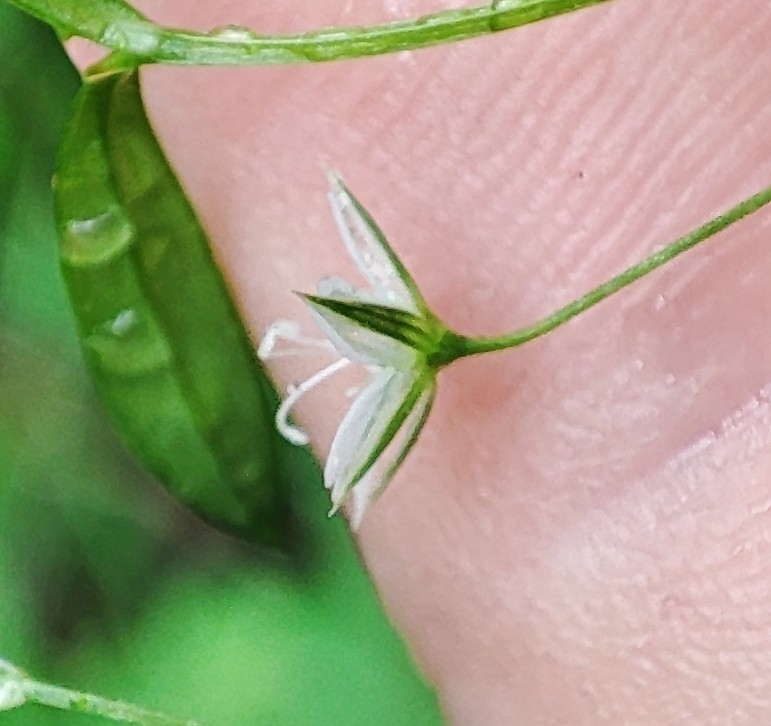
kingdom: Plantae
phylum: Tracheophyta
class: Magnoliopsida
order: Caryophyllales
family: Caryophyllaceae
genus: Stellaria
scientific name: Stellaria graminea
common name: Grass-like starwort
